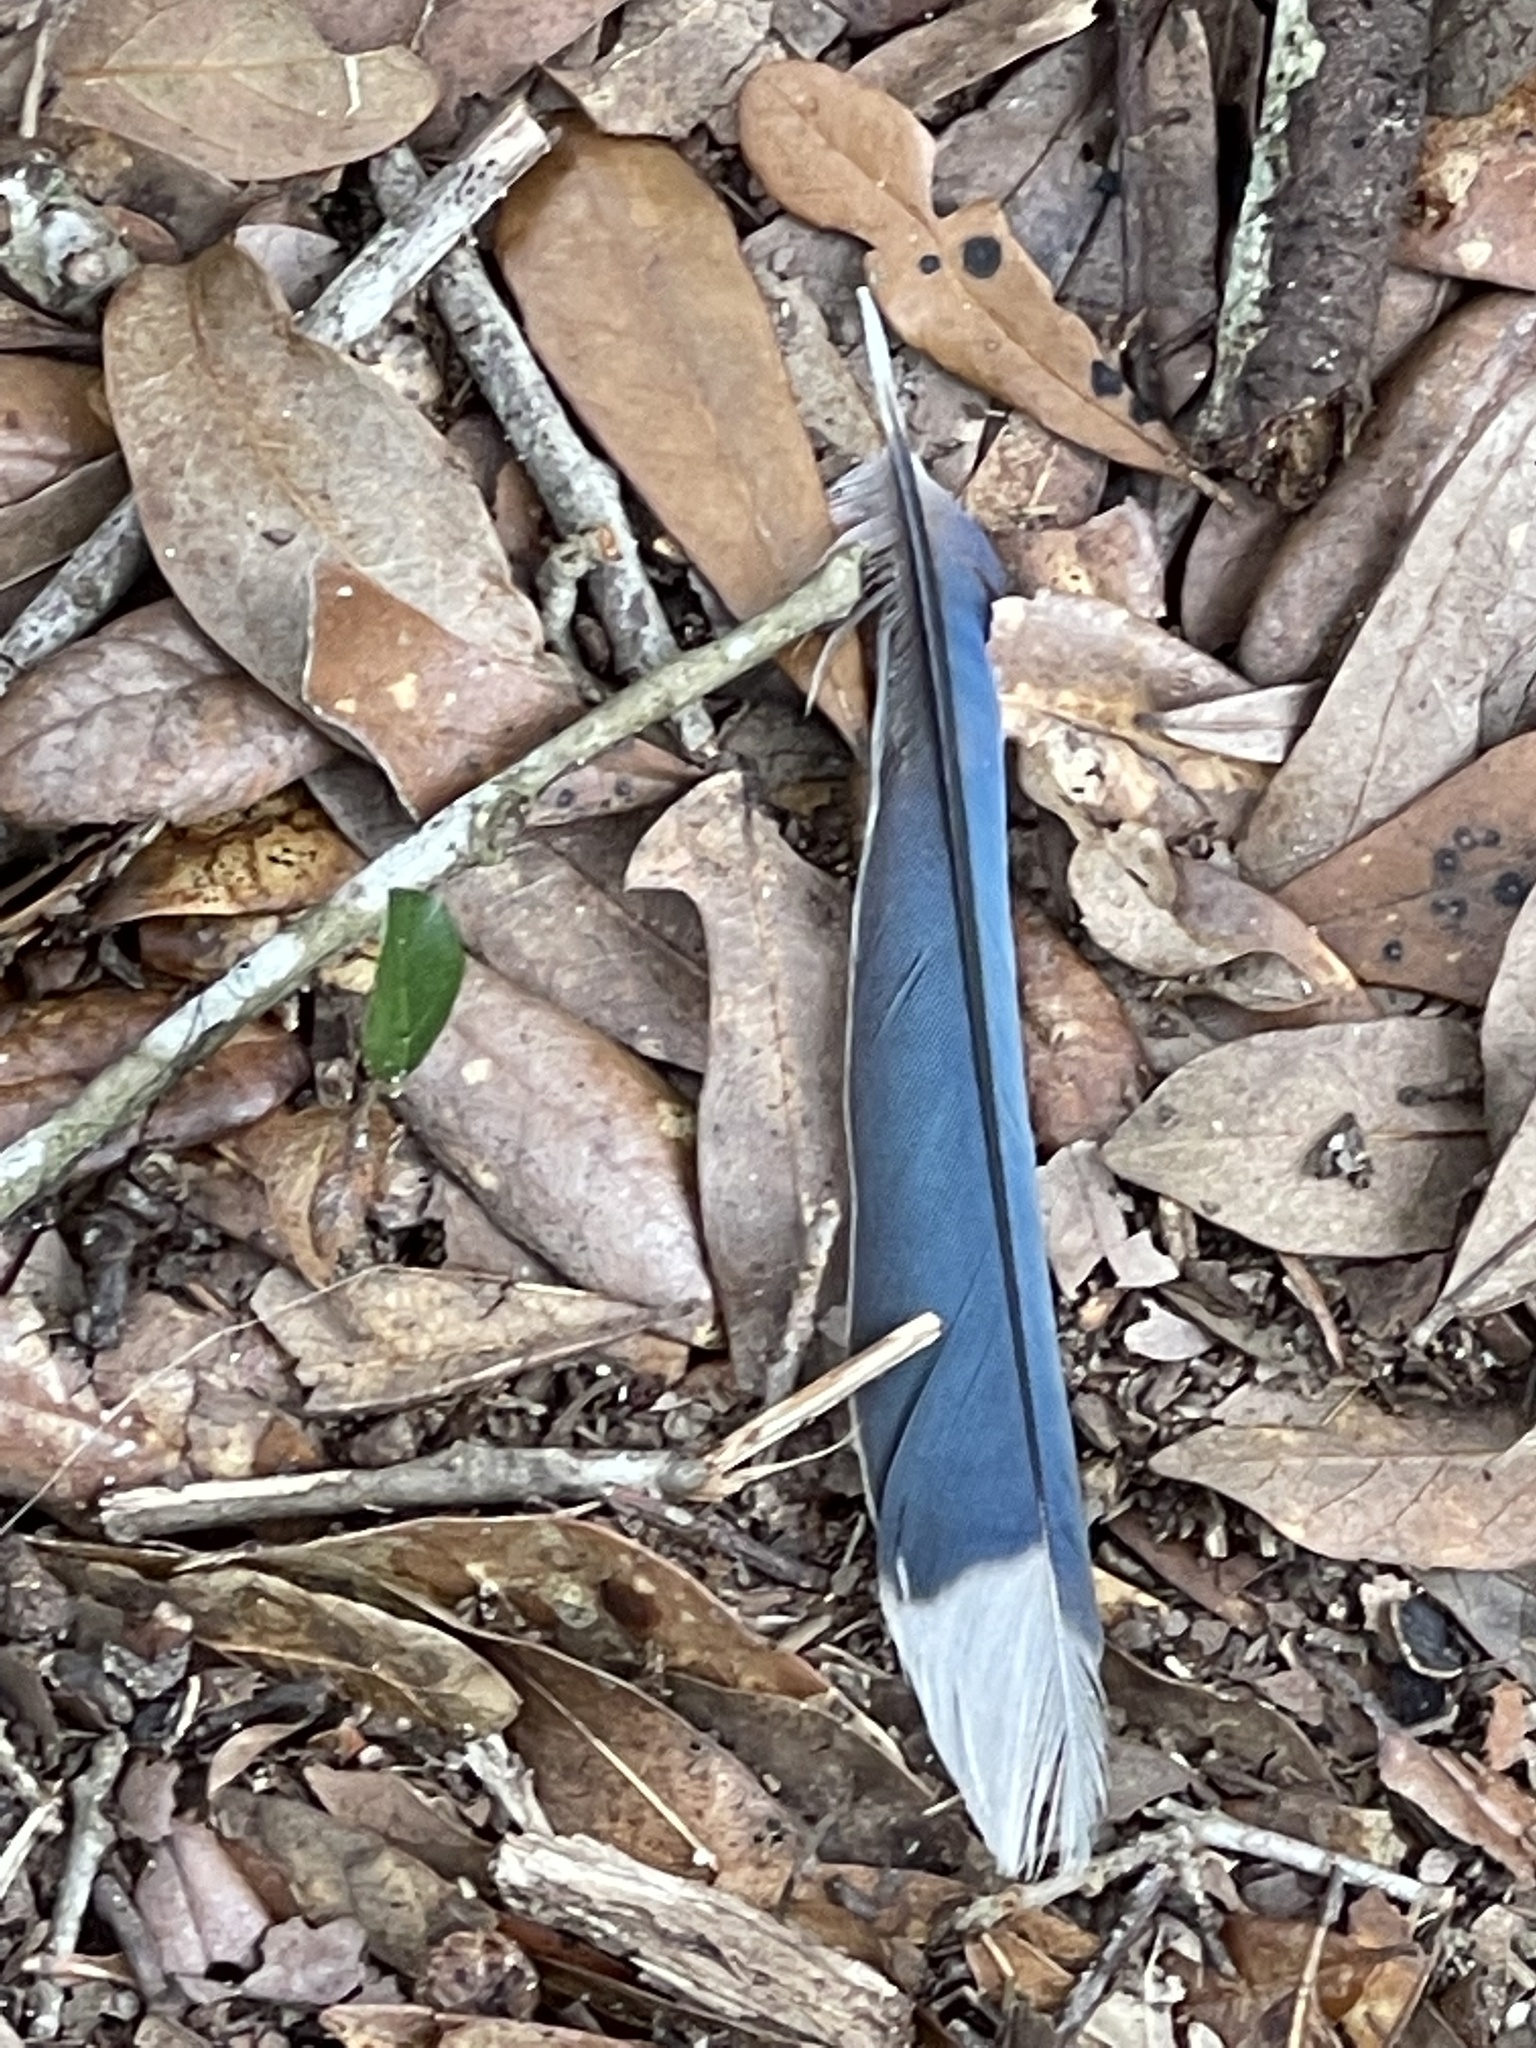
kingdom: Animalia
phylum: Chordata
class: Aves
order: Passeriformes
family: Corvidae
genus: Cyanocitta
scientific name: Cyanocitta cristata
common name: Blue jay
